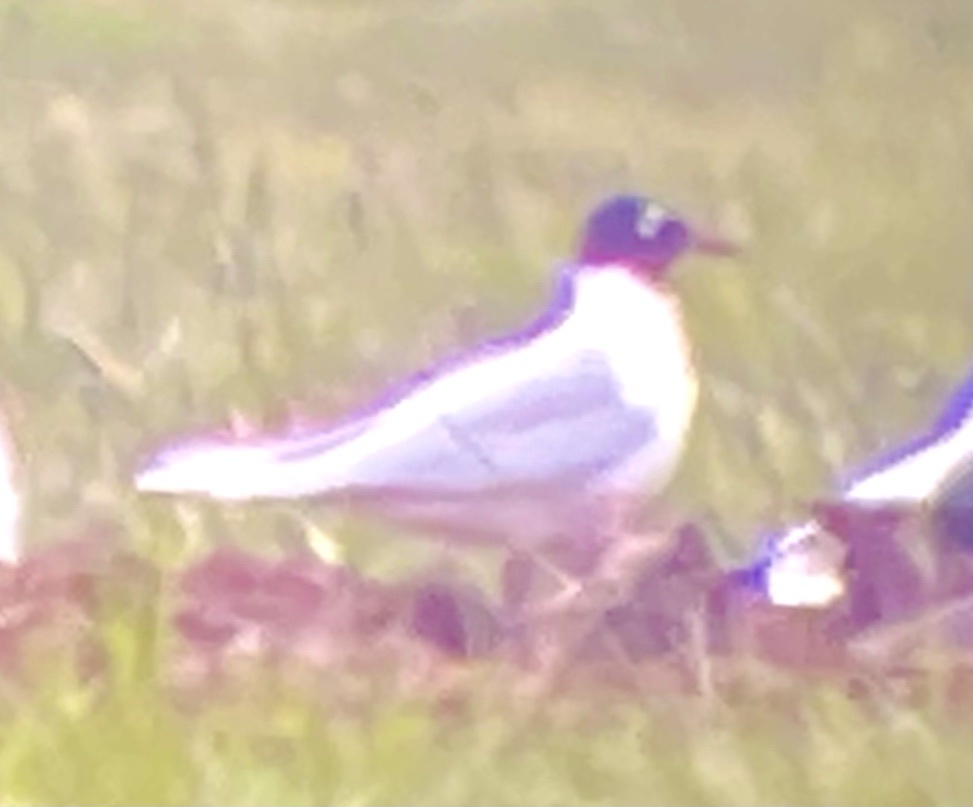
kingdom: Animalia
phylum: Chordata
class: Aves
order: Charadriiformes
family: Laridae
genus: Ichthyaetus
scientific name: Ichthyaetus melanocephalus
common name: Mediterranean gull
